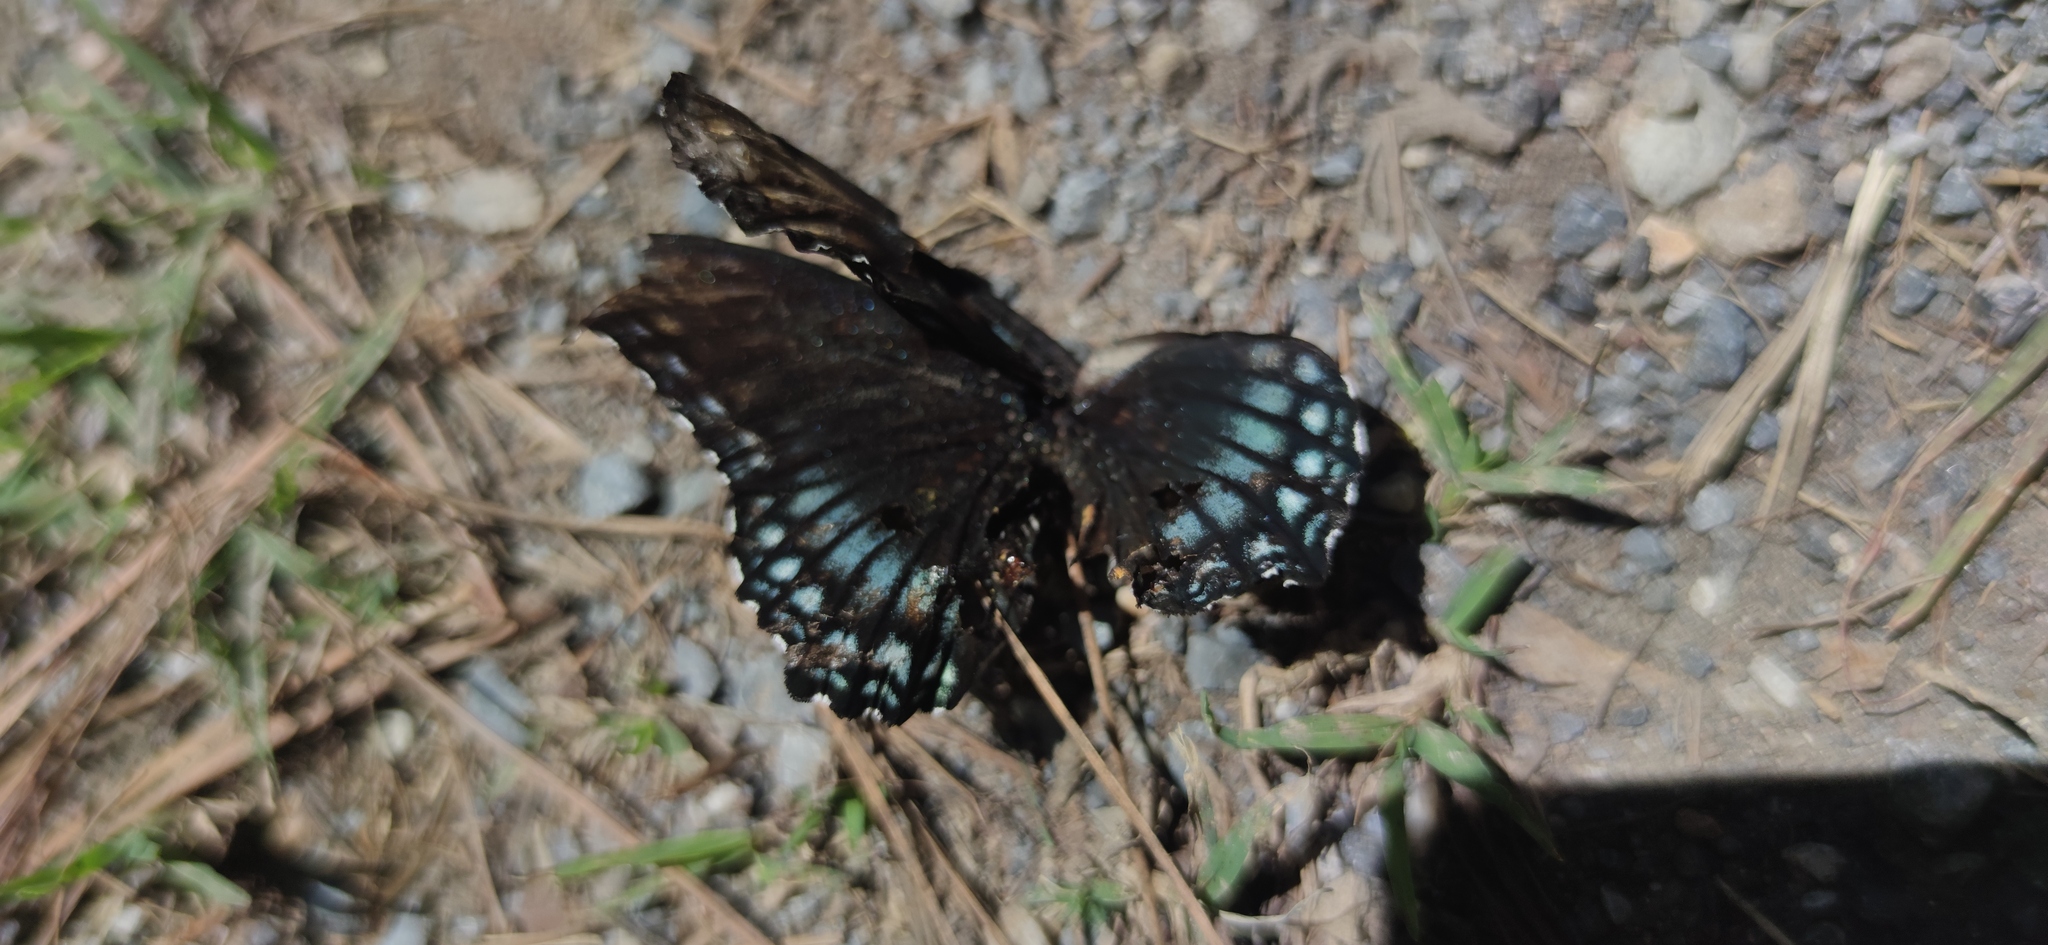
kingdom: Animalia
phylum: Arthropoda
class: Insecta
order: Lepidoptera
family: Nymphalidae
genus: Limenitis
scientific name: Limenitis arthemis
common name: Red-spotted admiral
